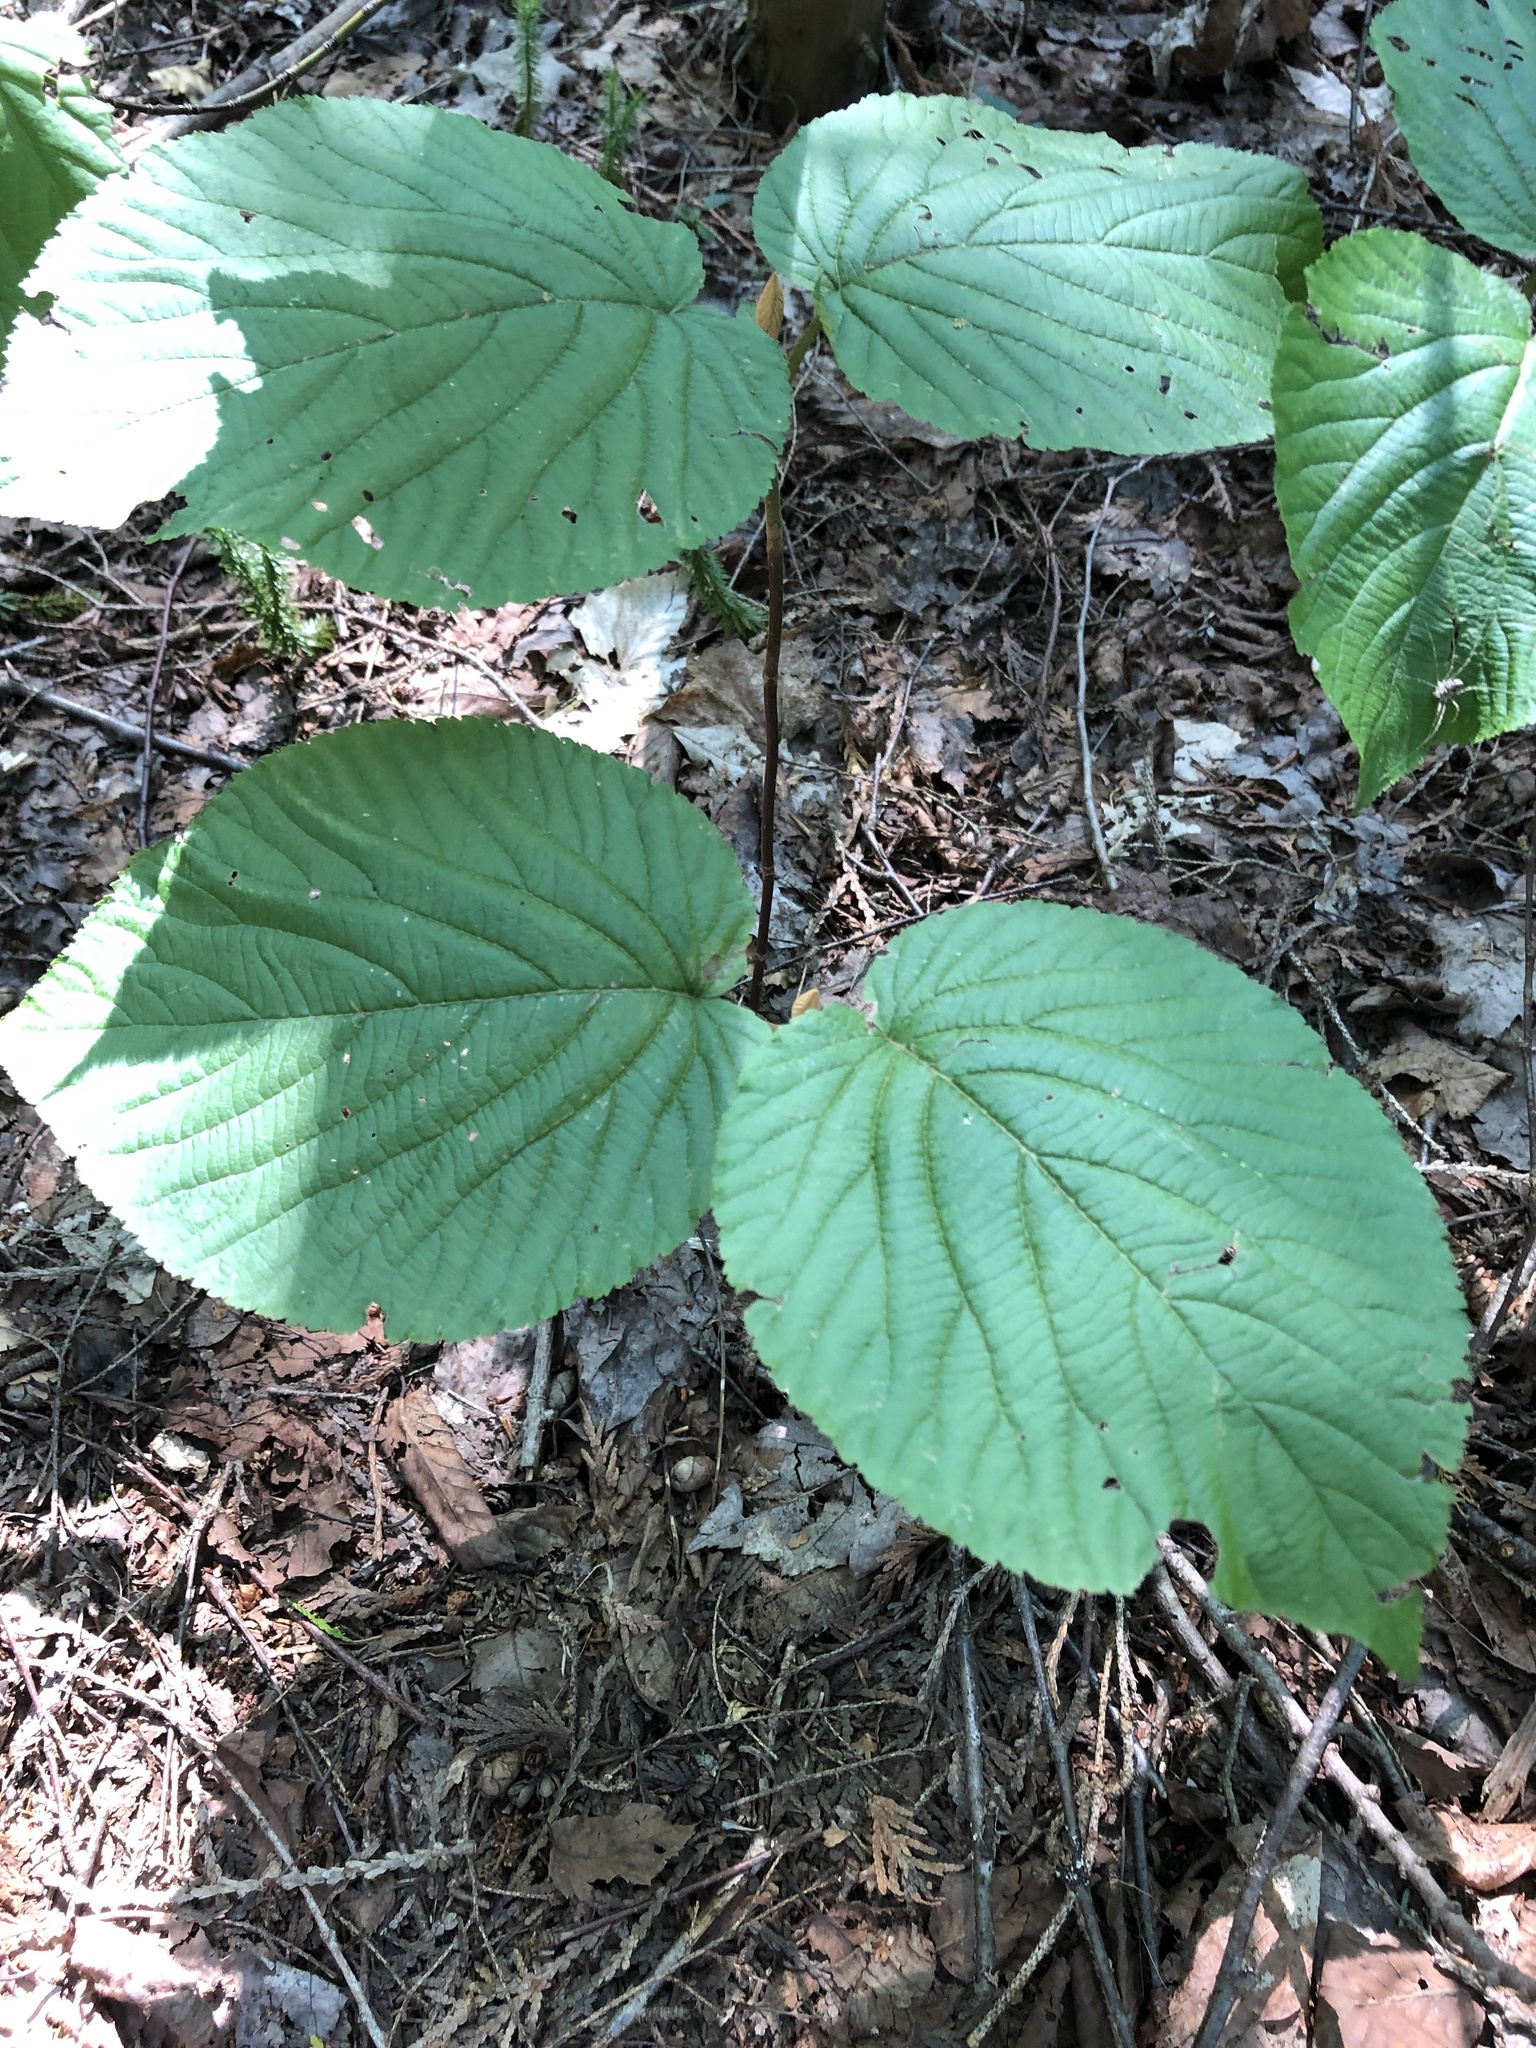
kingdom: Plantae
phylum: Tracheophyta
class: Magnoliopsida
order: Dipsacales
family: Viburnaceae
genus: Viburnum
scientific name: Viburnum lantanoides
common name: Hobblebush
